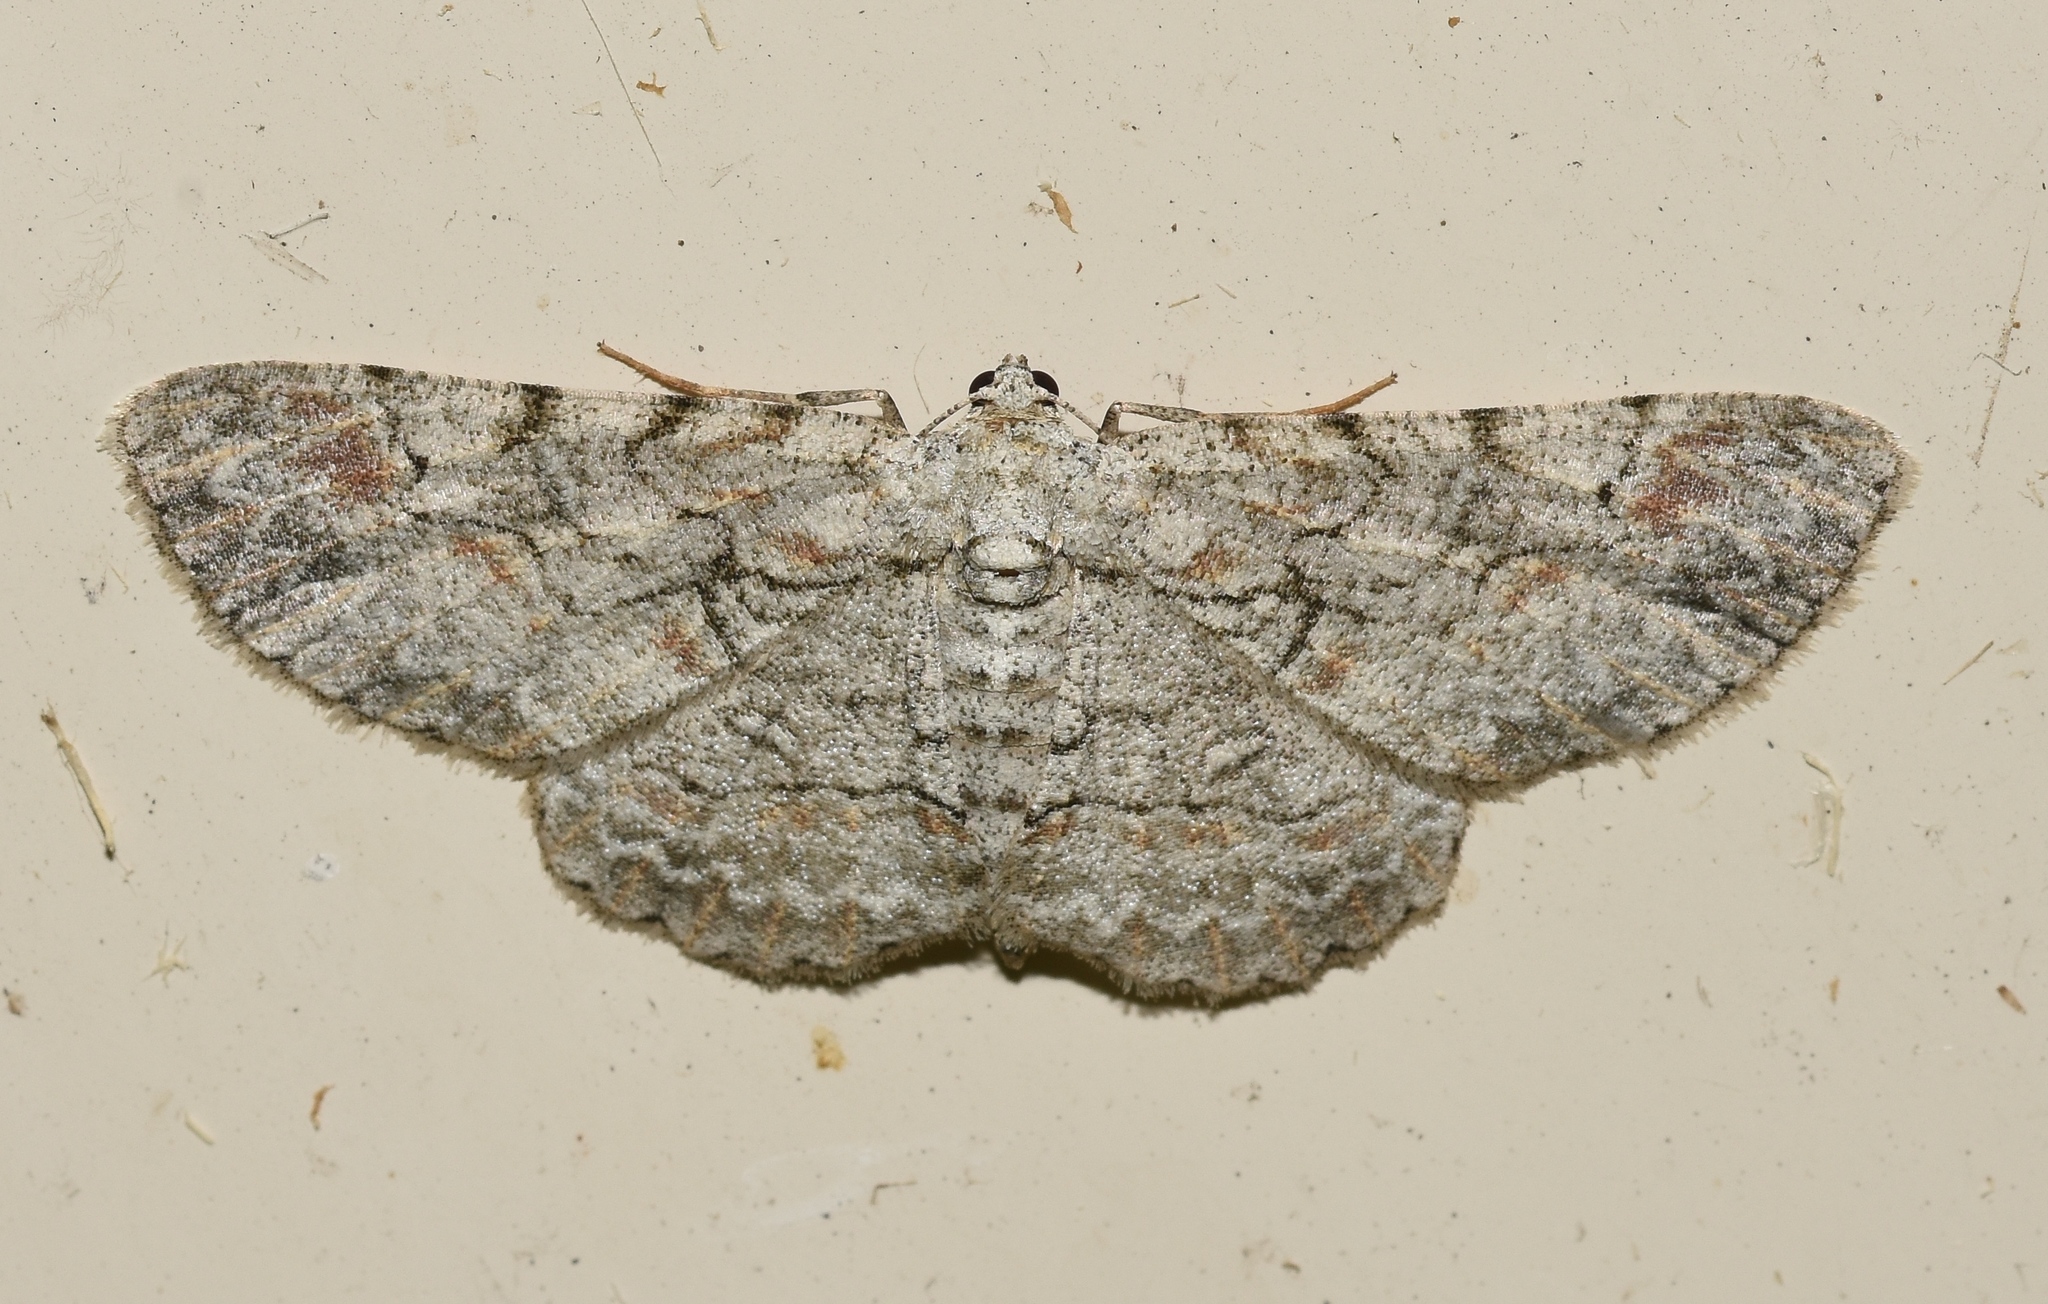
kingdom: Animalia
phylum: Arthropoda
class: Insecta
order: Lepidoptera
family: Geometridae
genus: Iridopsis
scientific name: Iridopsis defectaria
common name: Brown-shaded gray
